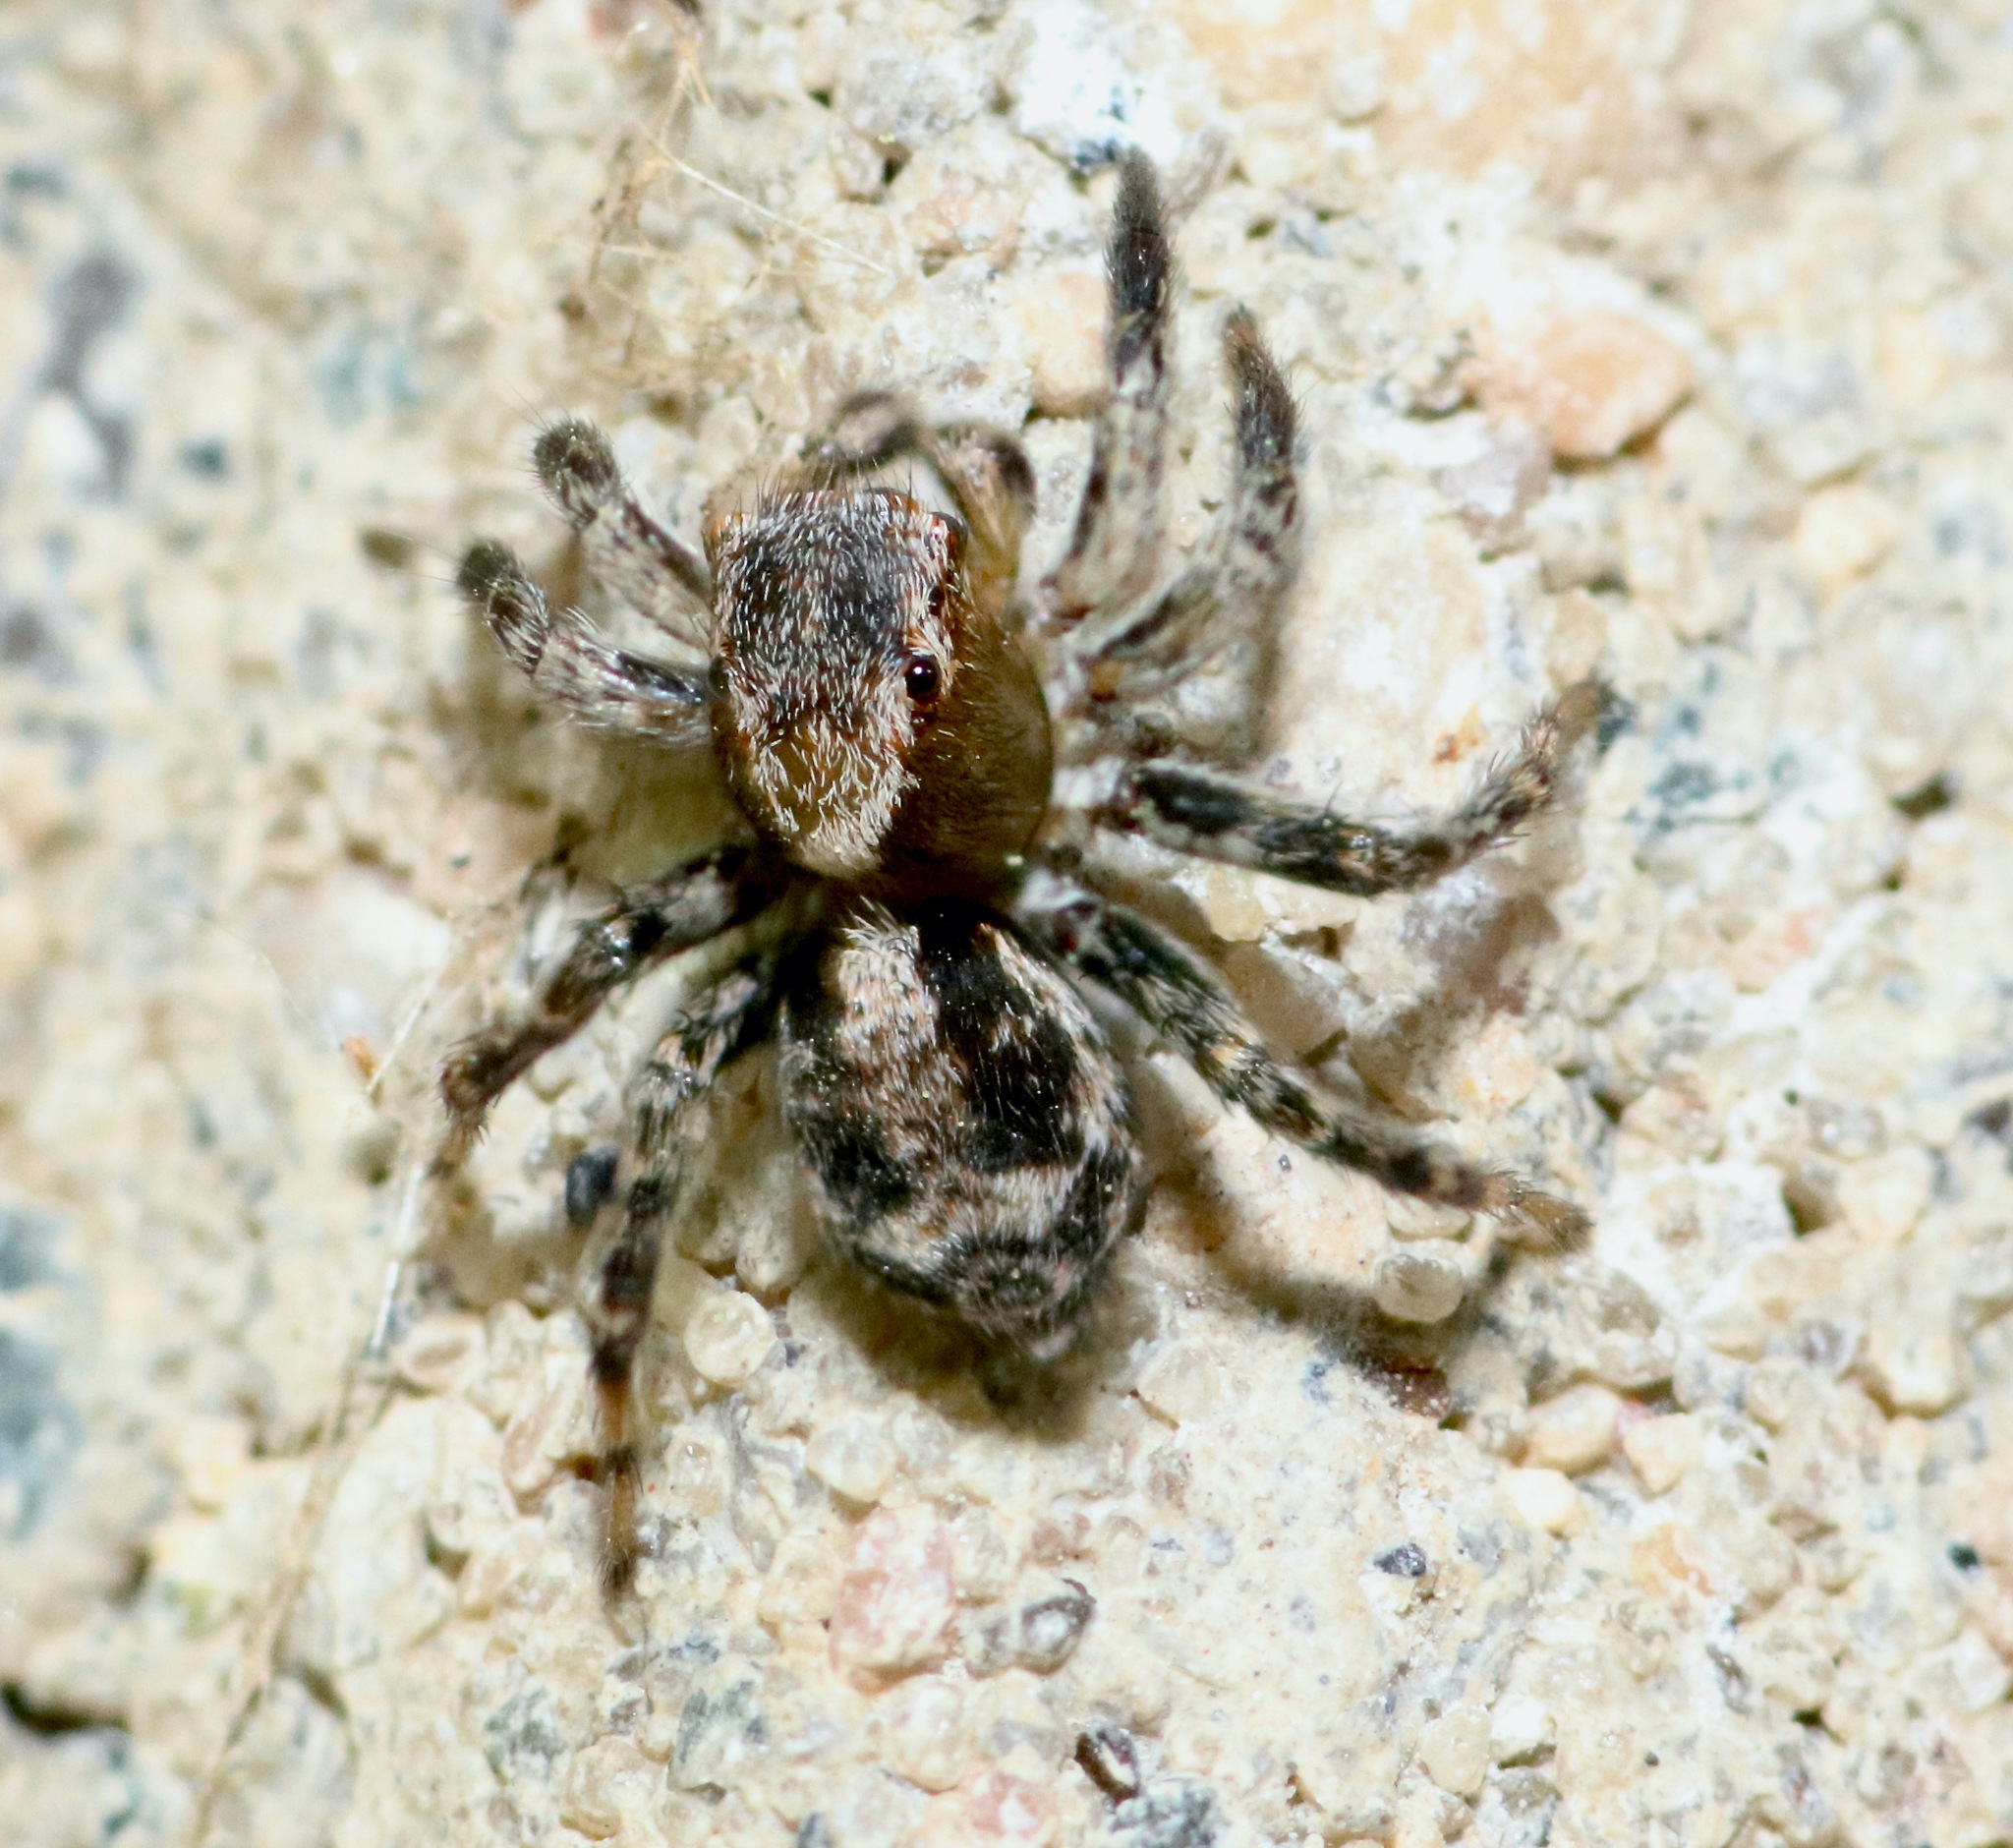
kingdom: Animalia
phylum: Arthropoda
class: Arachnida
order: Araneae
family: Salticidae
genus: Naphrys
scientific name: Naphrys pulex
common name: Flea jumping spider
